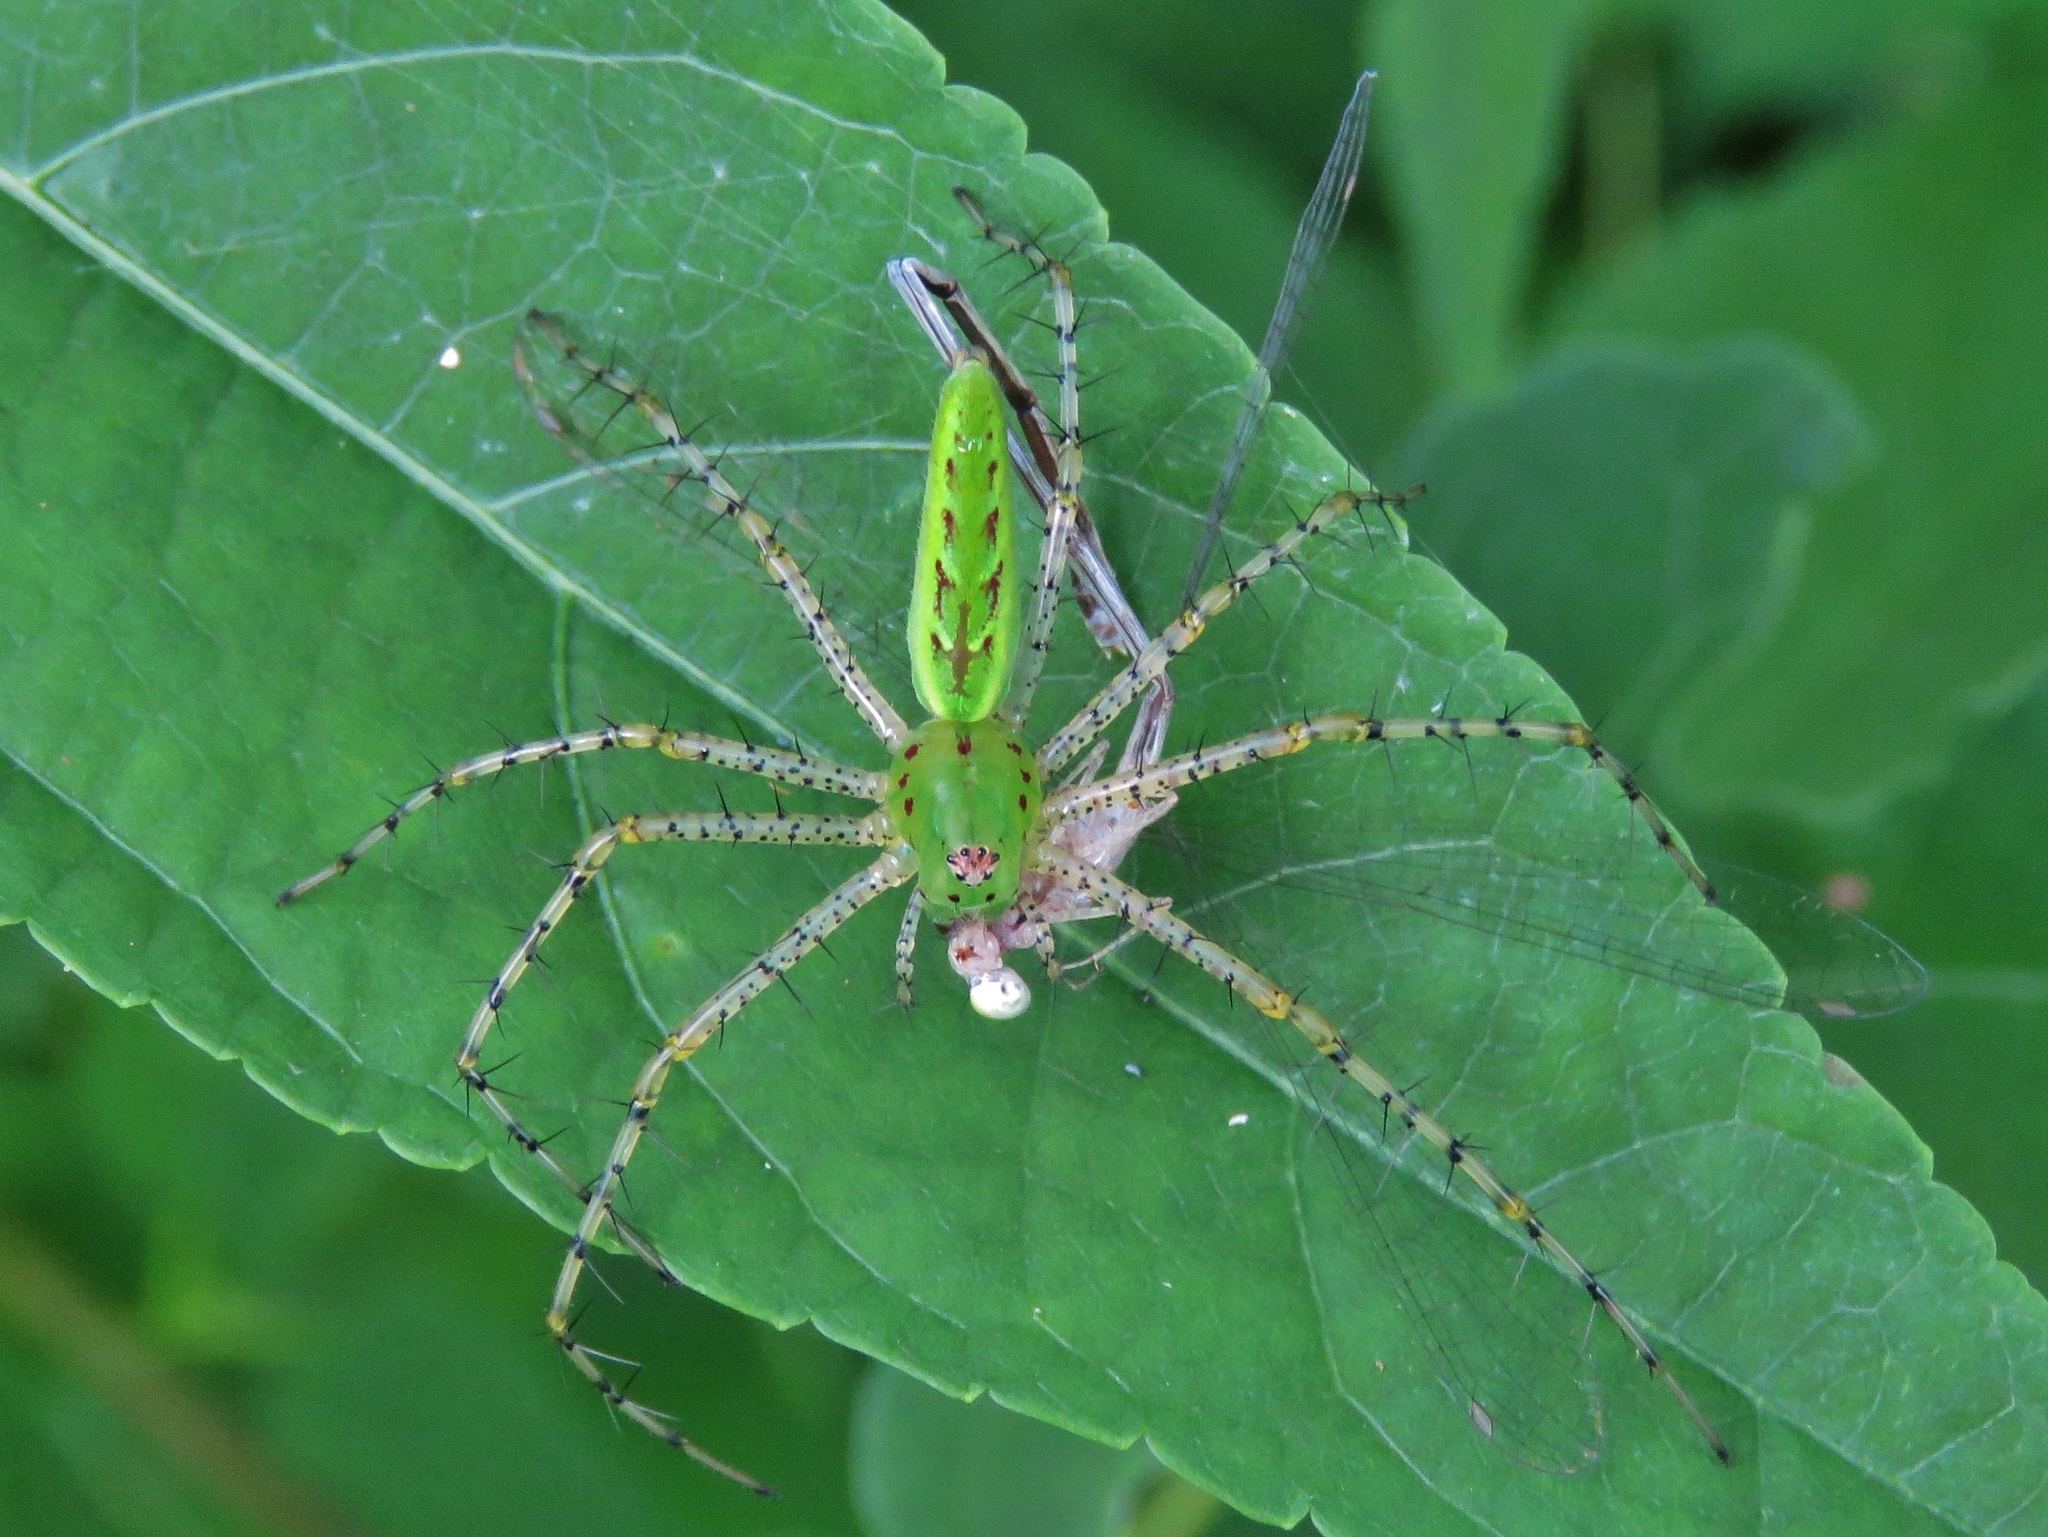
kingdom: Animalia
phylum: Arthropoda
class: Arachnida
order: Araneae
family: Oxyopidae
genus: Peucetia
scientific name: Peucetia viridans
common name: Lynx spiders
